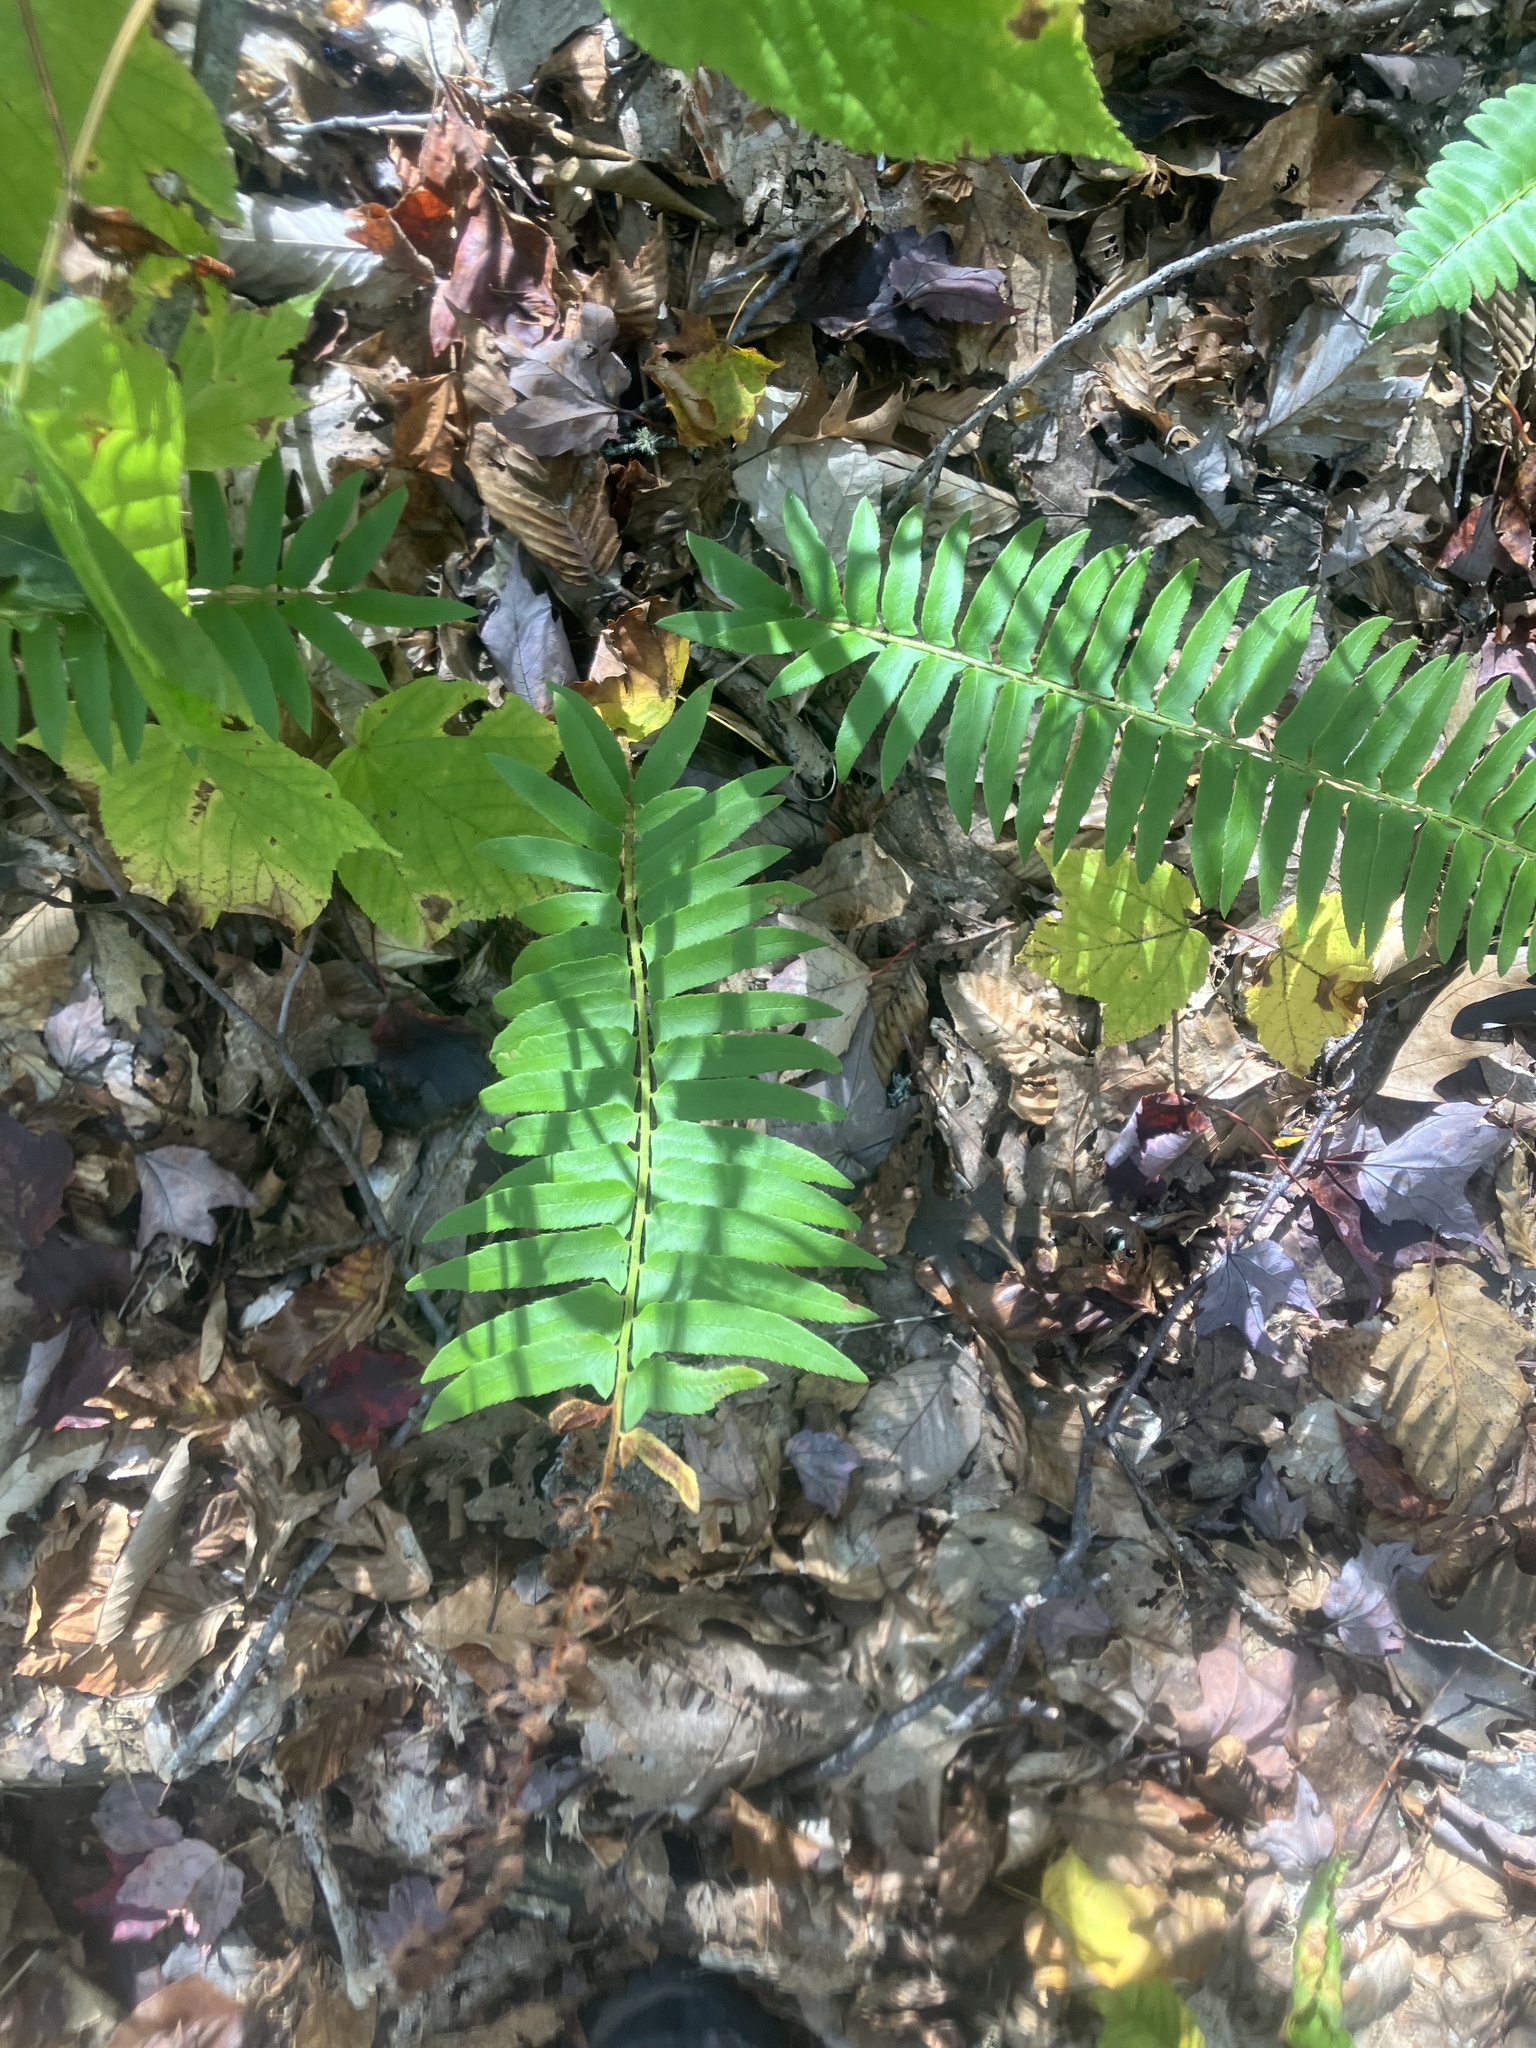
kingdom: Plantae
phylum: Tracheophyta
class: Polypodiopsida
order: Polypodiales
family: Dryopteridaceae
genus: Polystichum
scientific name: Polystichum acrostichoides
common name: Christmas fern
